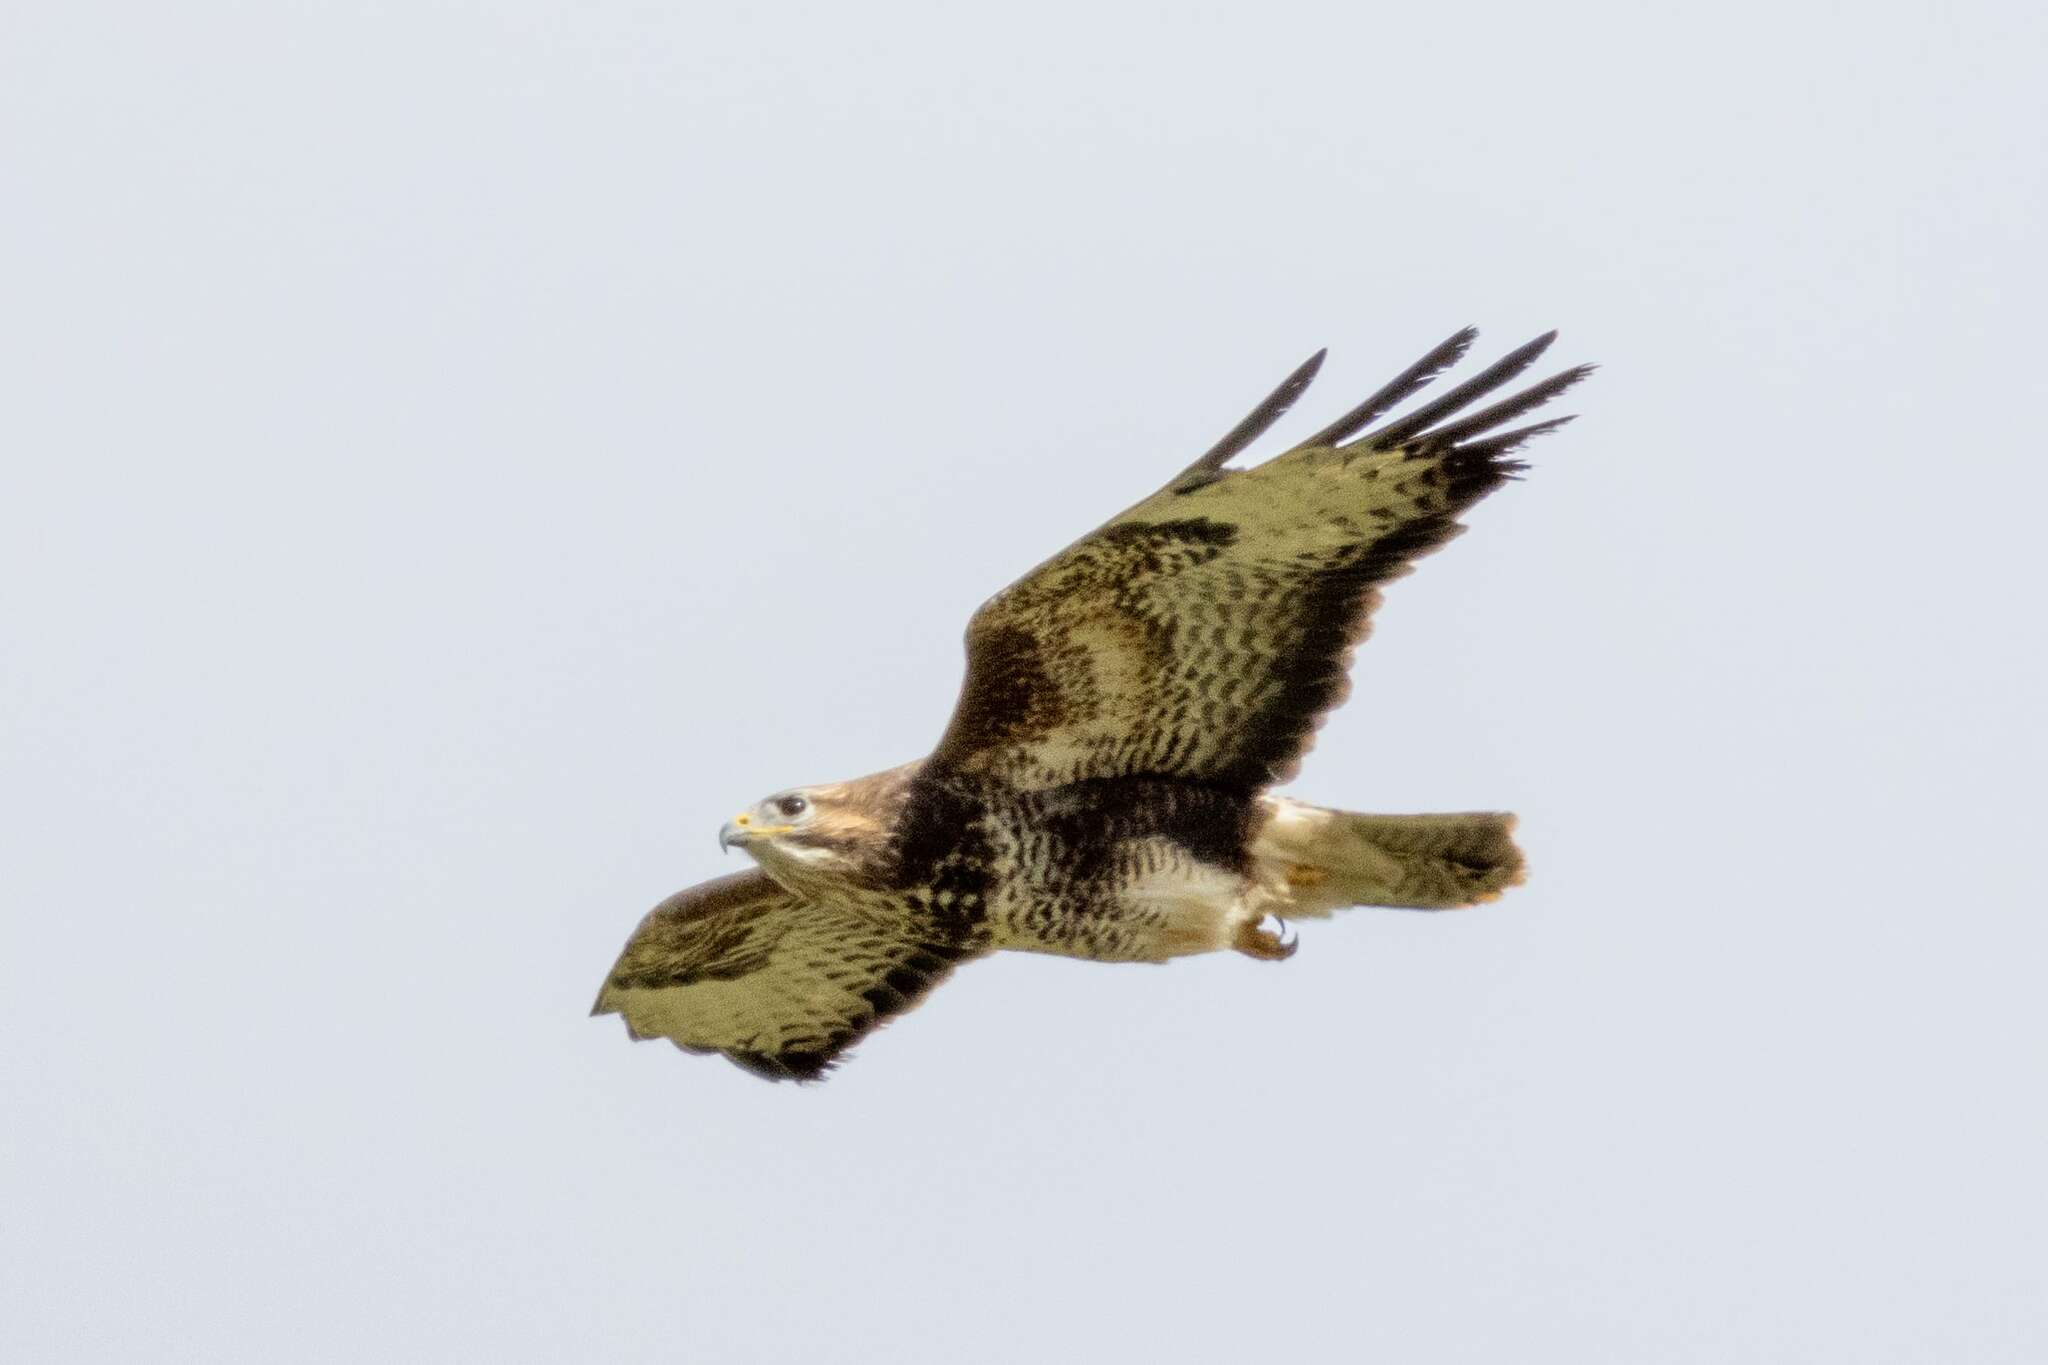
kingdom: Animalia
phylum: Chordata
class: Aves
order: Accipitriformes
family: Accipitridae
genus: Buteo
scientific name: Buteo buteo
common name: Common buzzard
